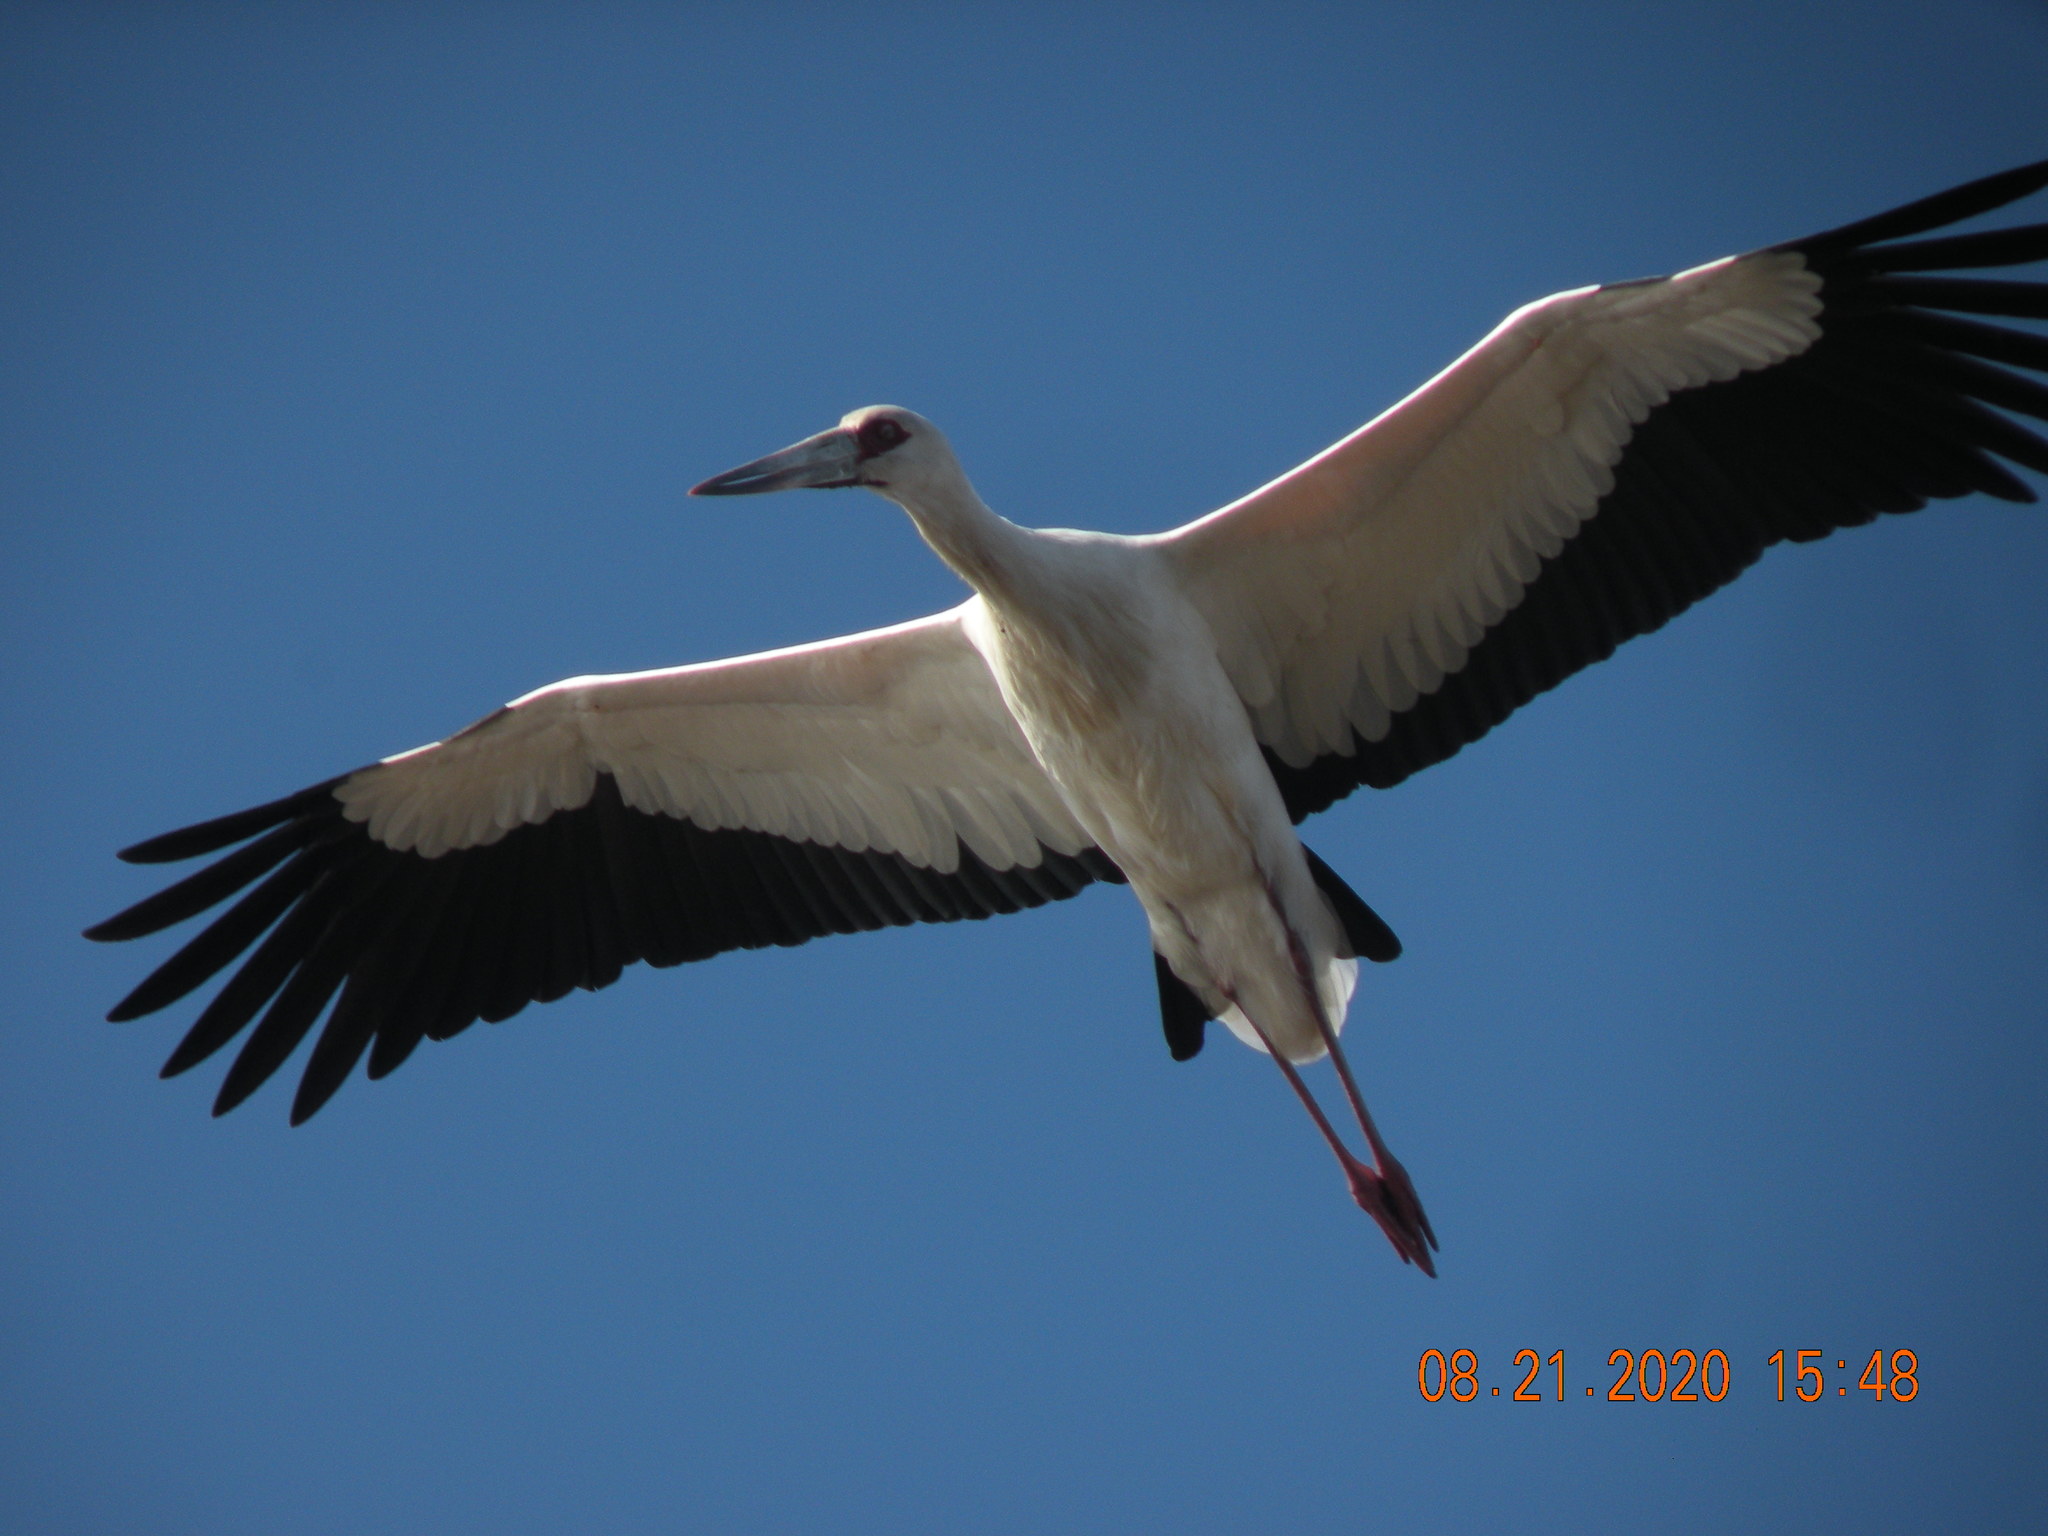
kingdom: Animalia
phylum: Chordata
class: Aves
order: Ciconiiformes
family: Ciconiidae
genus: Ciconia
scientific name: Ciconia maguari
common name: Maguari stork
